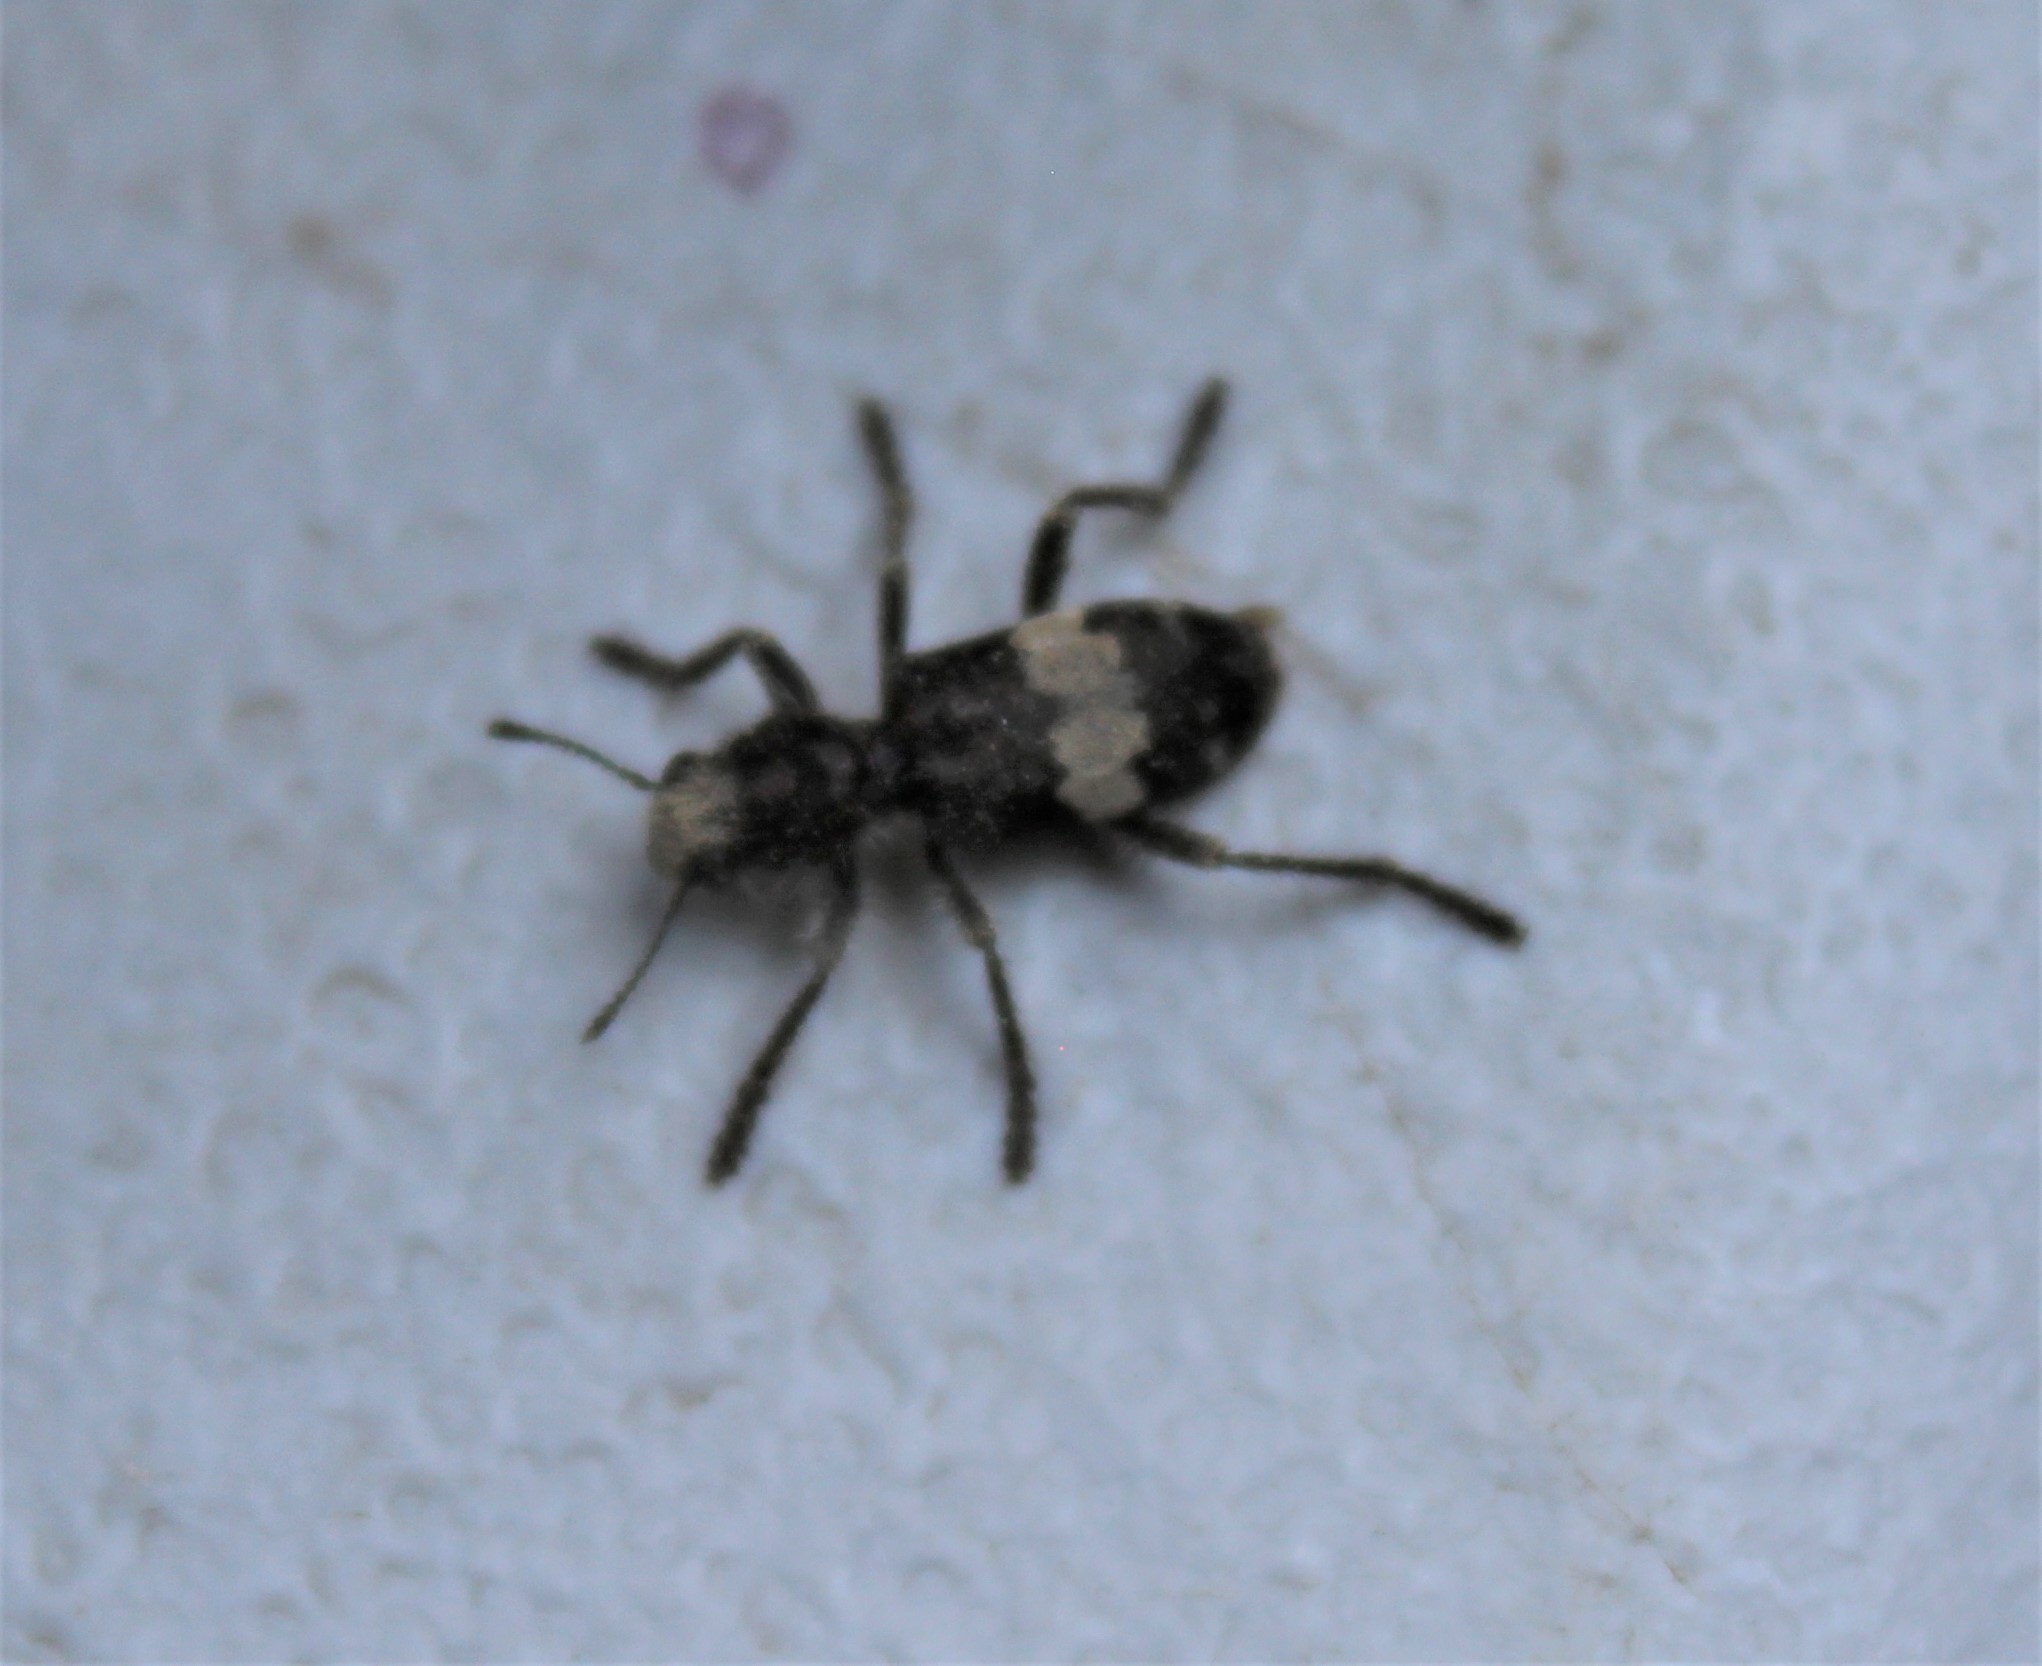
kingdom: Animalia
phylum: Arthropoda
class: Insecta
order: Coleoptera
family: Cleridae
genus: Enoclerus
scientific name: Enoclerus sphegeus
